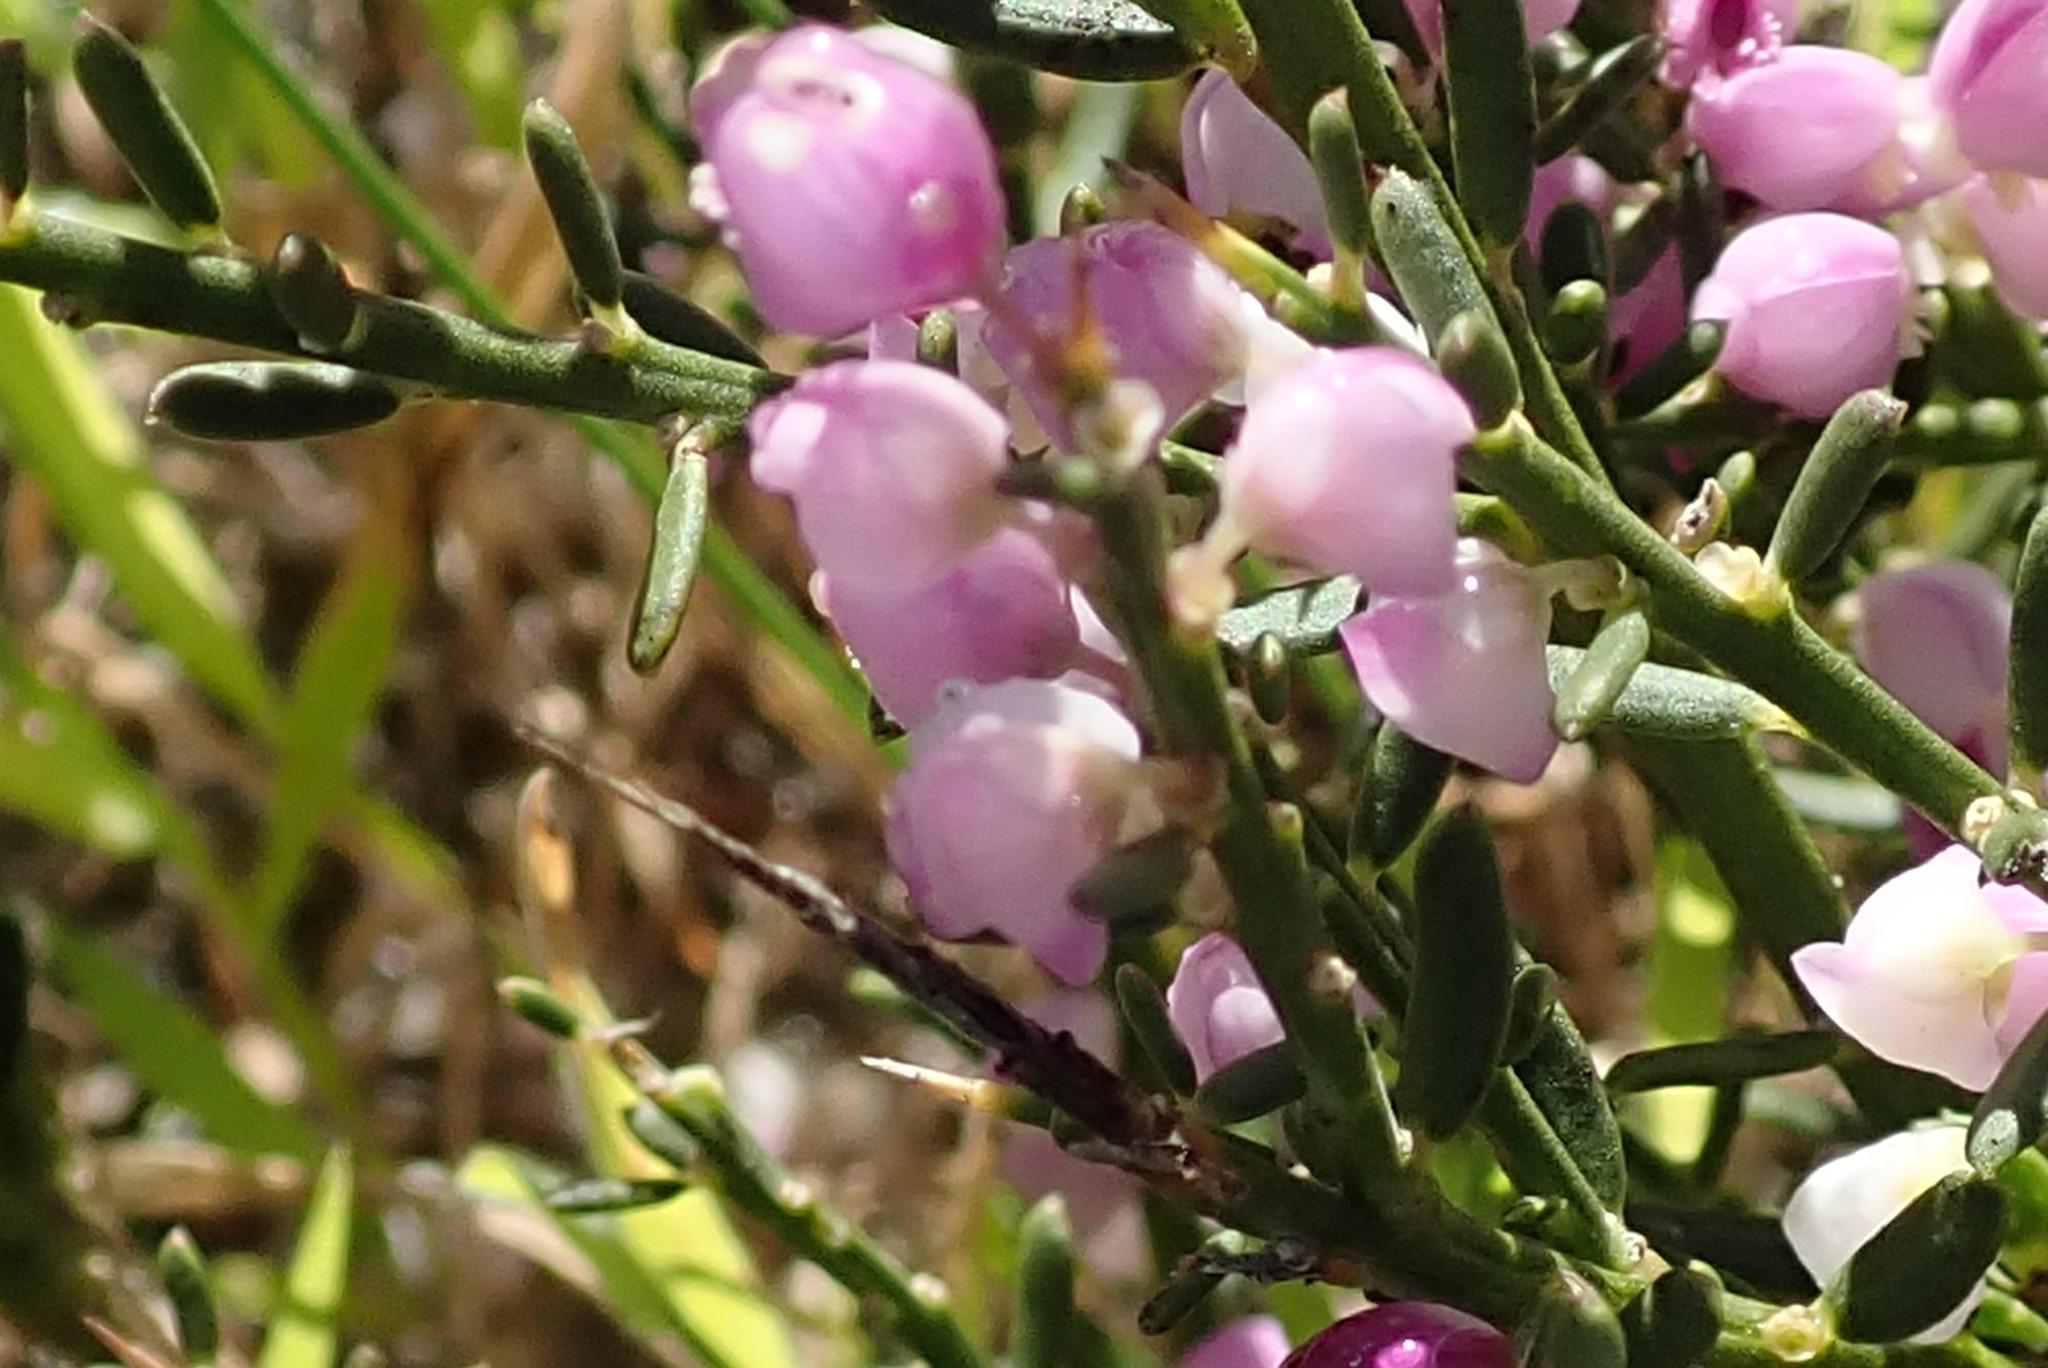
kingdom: Plantae
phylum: Tracheophyta
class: Magnoliopsida
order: Fabales
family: Polygalaceae
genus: Muraltia
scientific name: Muraltia spinosa
